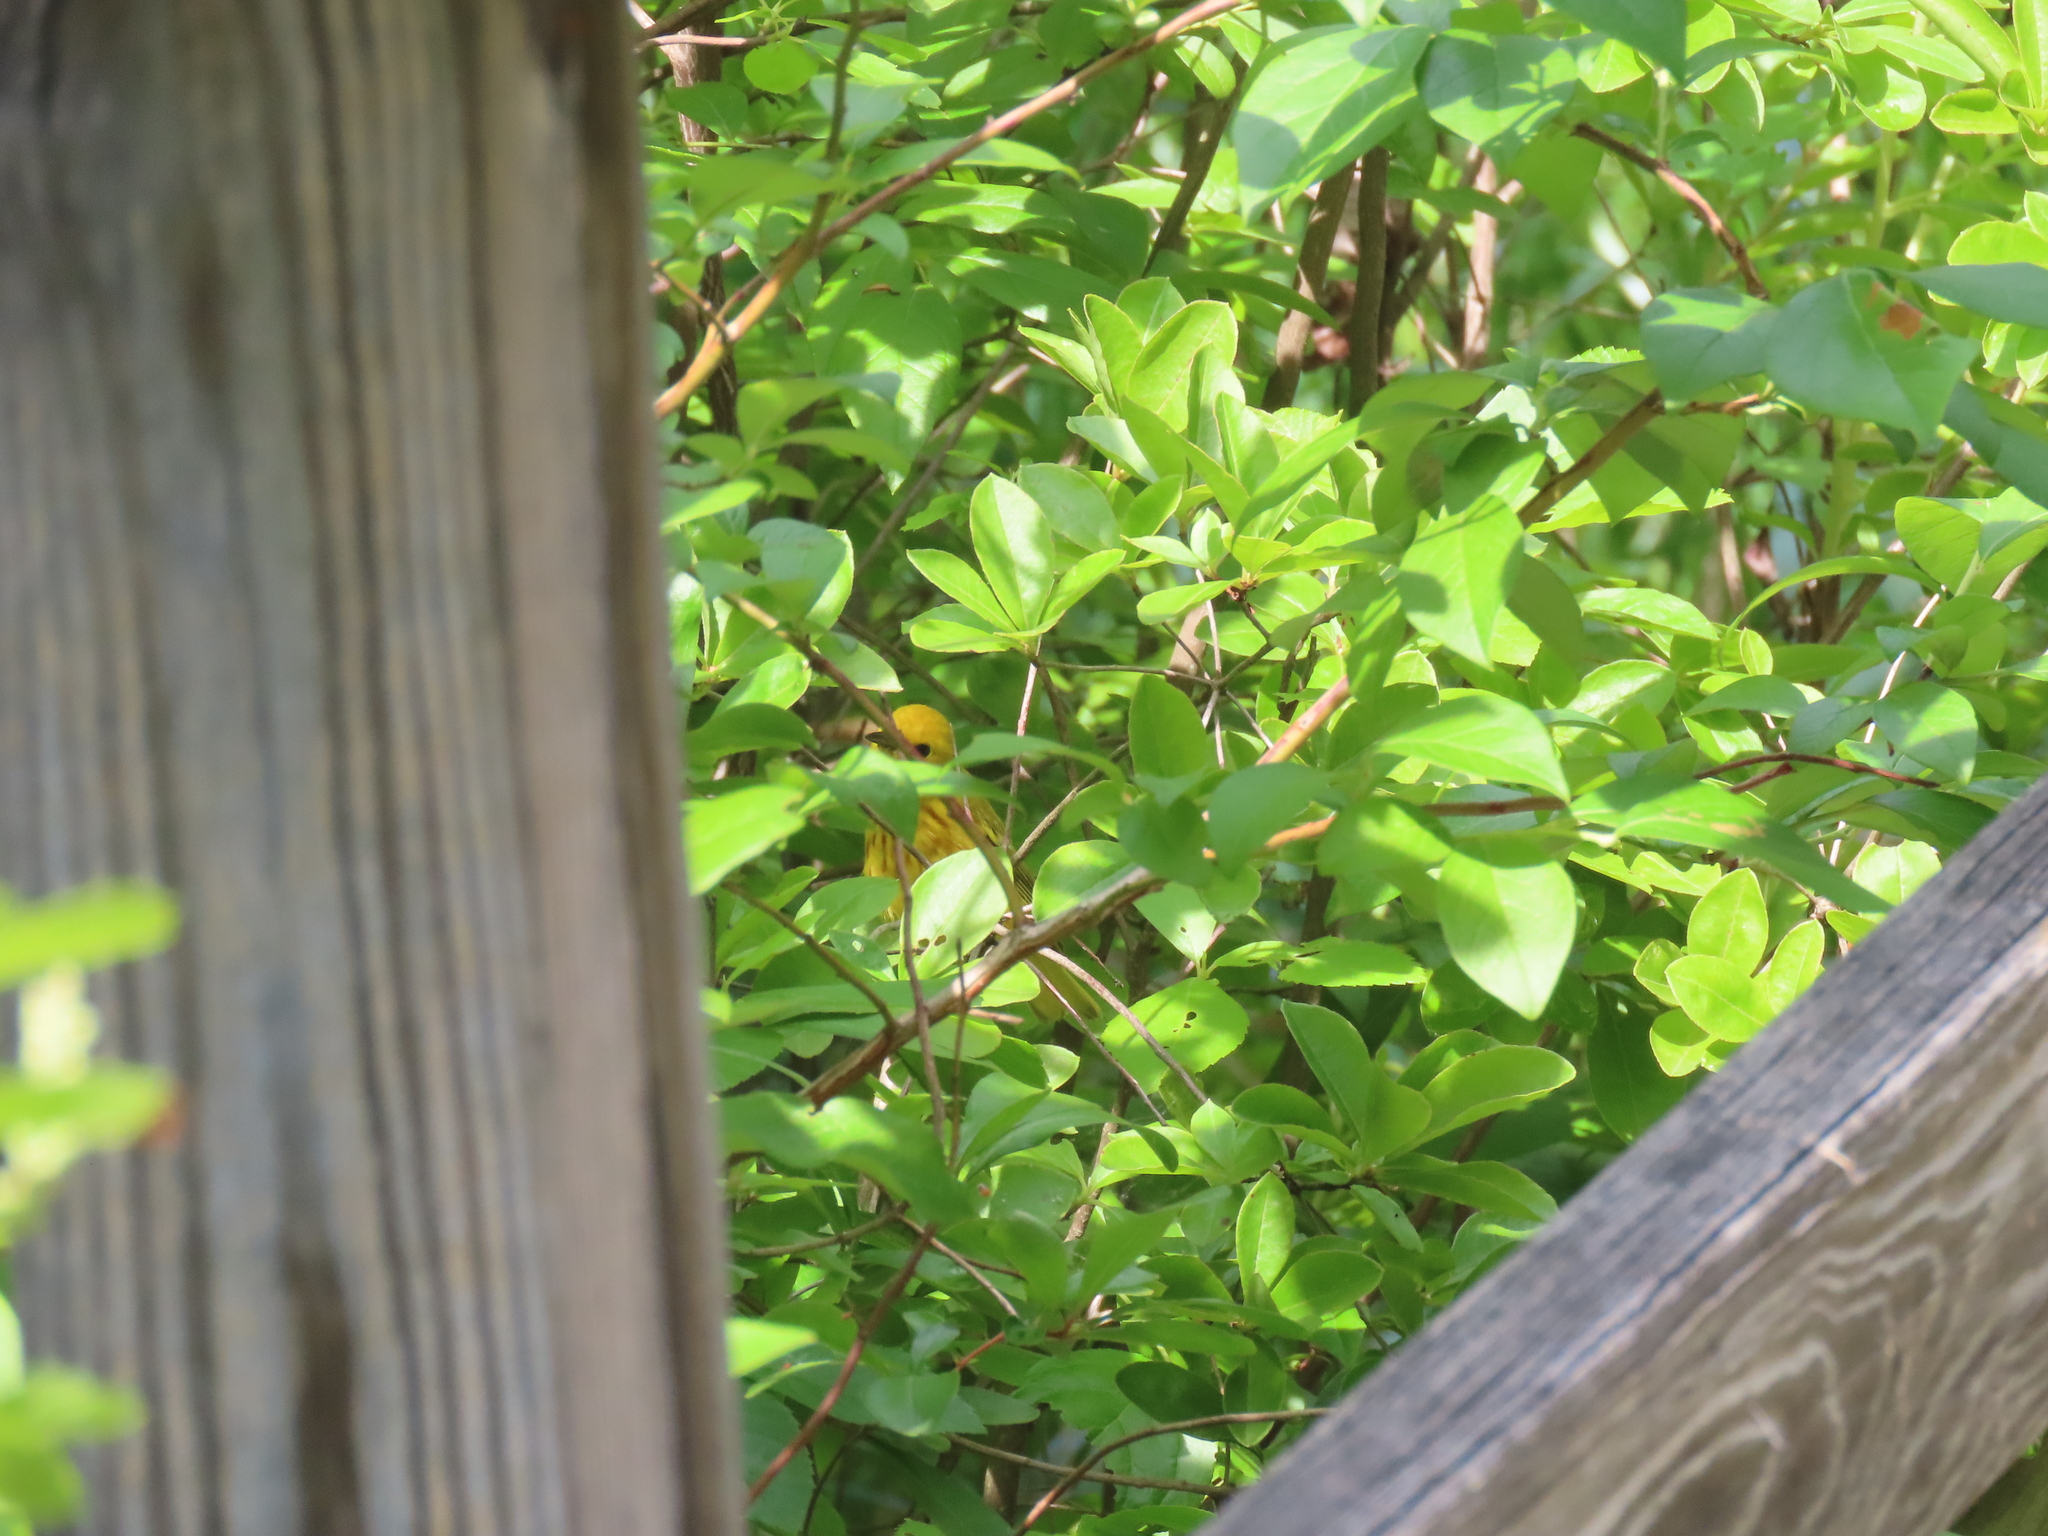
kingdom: Animalia
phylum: Chordata
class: Aves
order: Passeriformes
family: Parulidae
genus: Setophaga
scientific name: Setophaga petechia
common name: Yellow warbler
